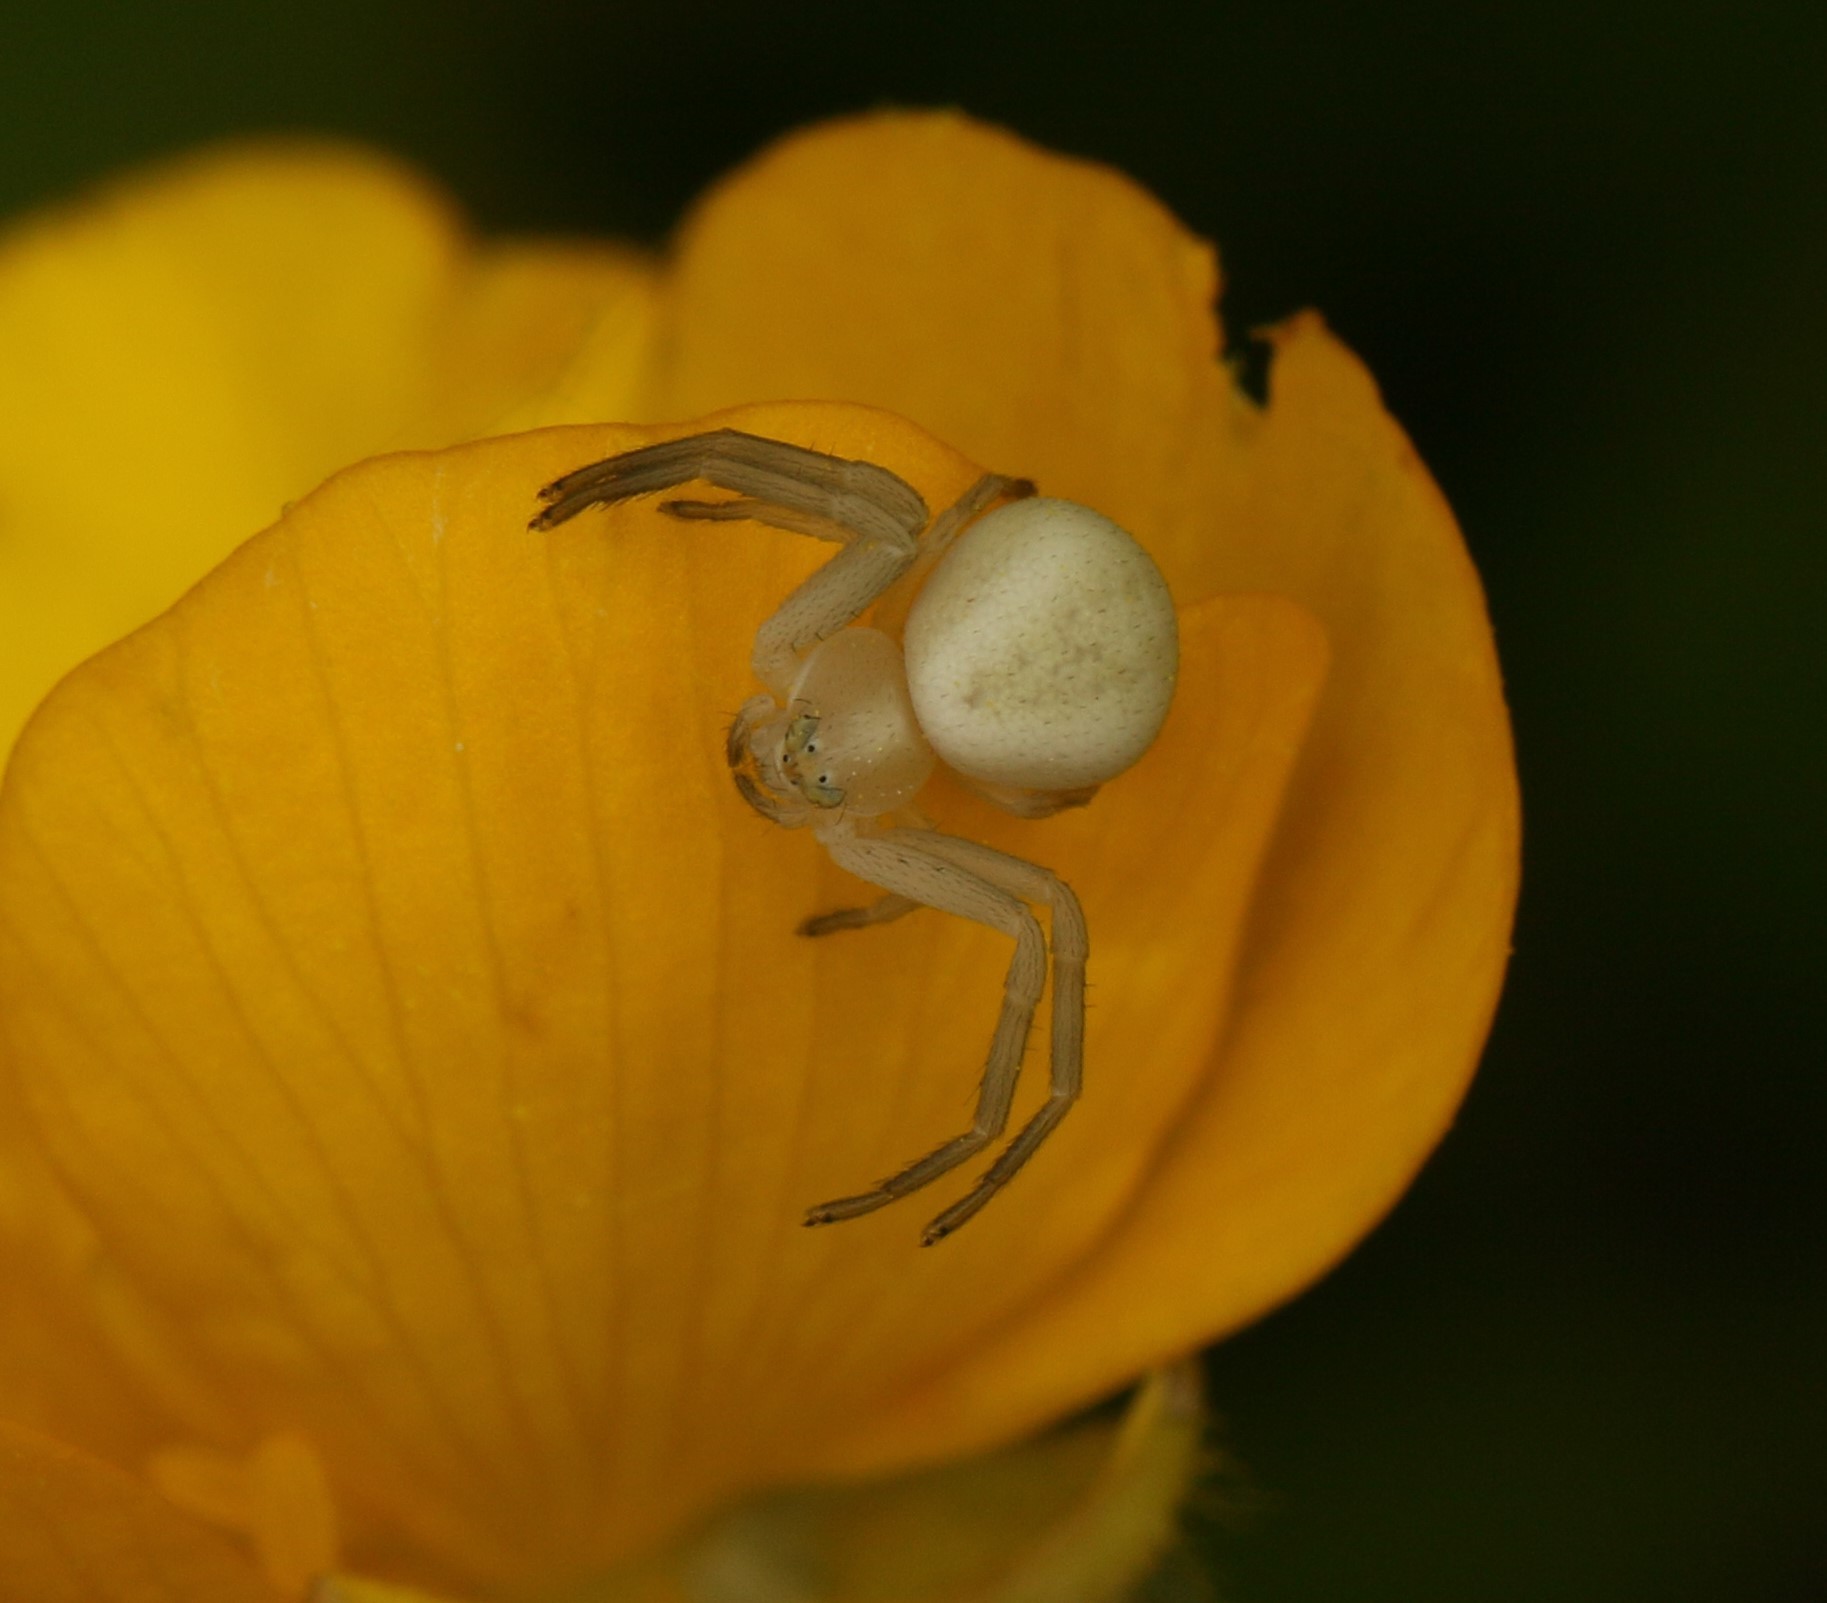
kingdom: Animalia
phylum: Arthropoda
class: Arachnida
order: Araneae
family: Thomisidae
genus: Misumena
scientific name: Misumena vatia
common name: Goldenrod crab spider
